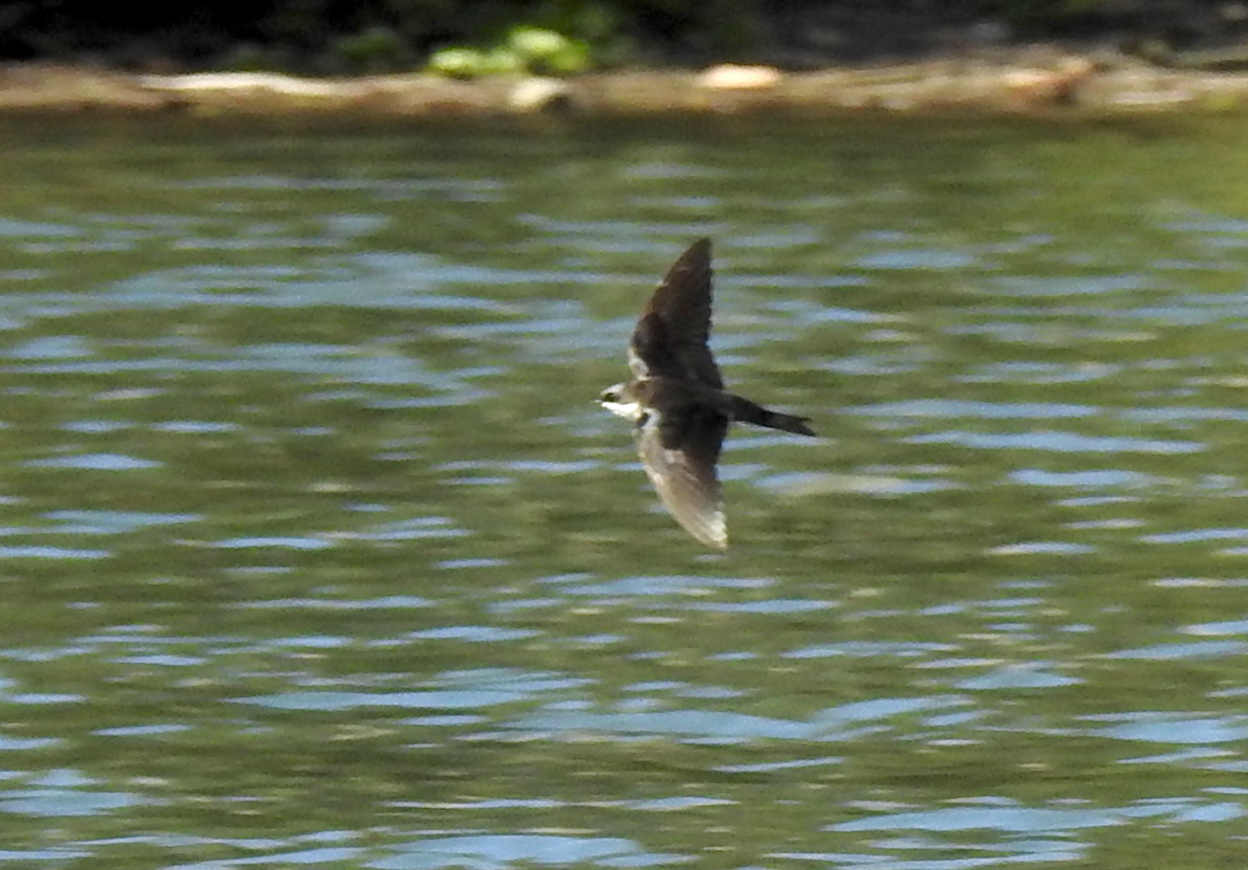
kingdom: Animalia
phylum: Chordata
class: Aves
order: Passeriformes
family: Hirundinidae
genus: Tachycineta
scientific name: Tachycineta bicolor
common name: Tree swallow
